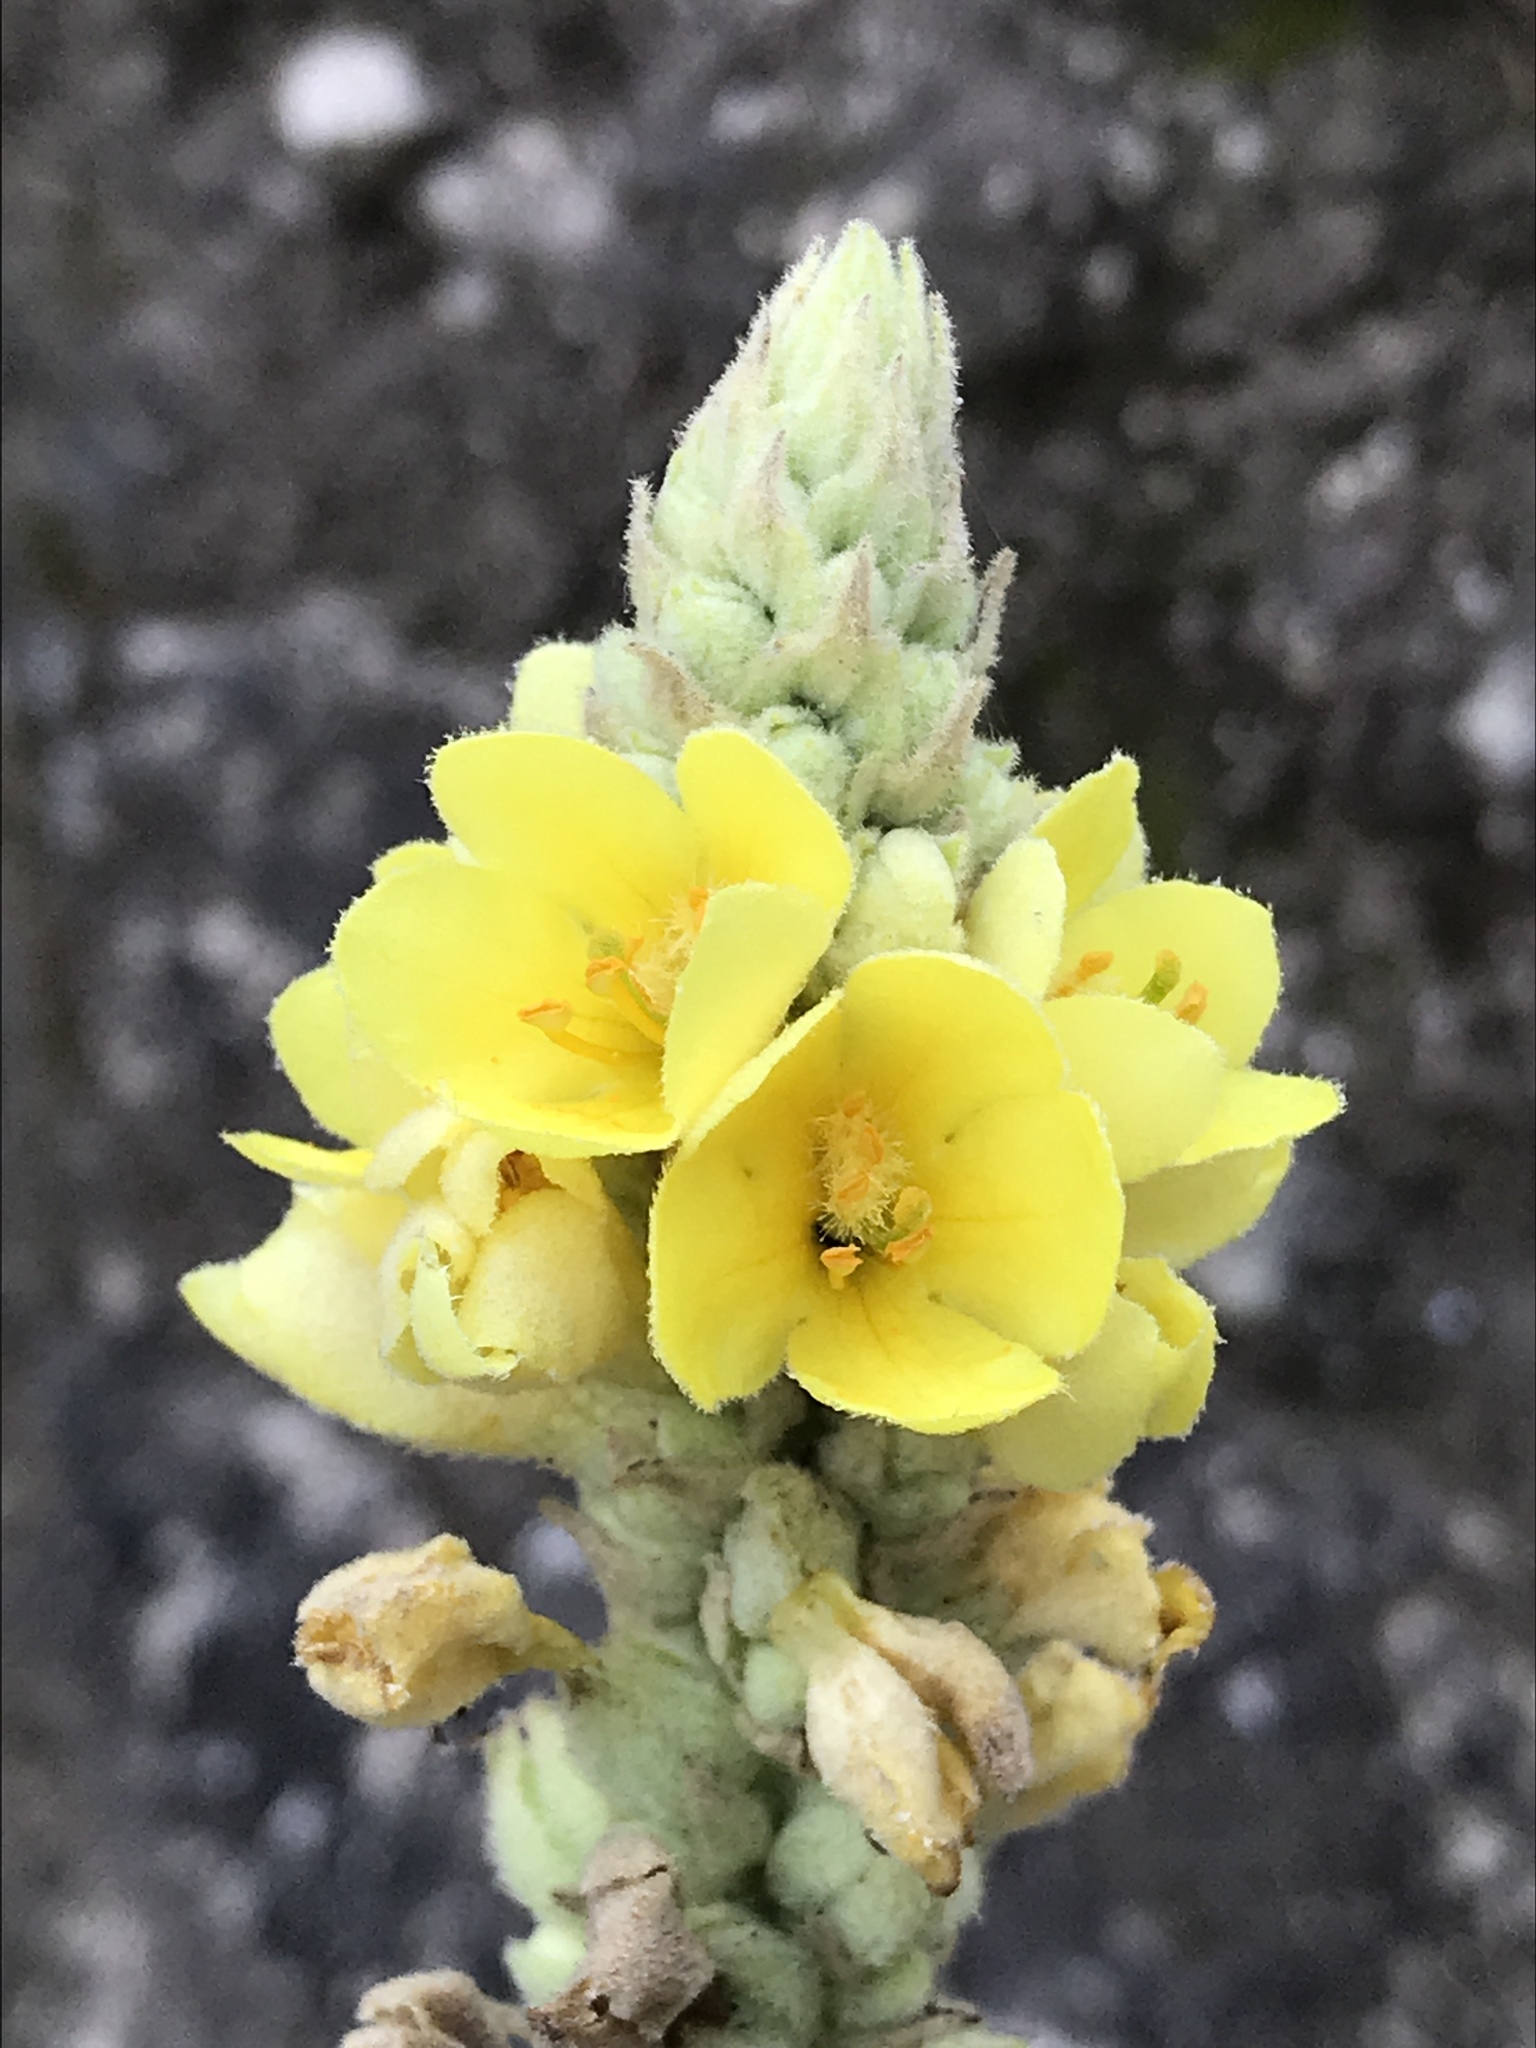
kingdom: Plantae
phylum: Tracheophyta
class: Magnoliopsida
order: Lamiales
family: Scrophulariaceae
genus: Verbascum
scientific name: Verbascum thapsus
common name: Common mullein
